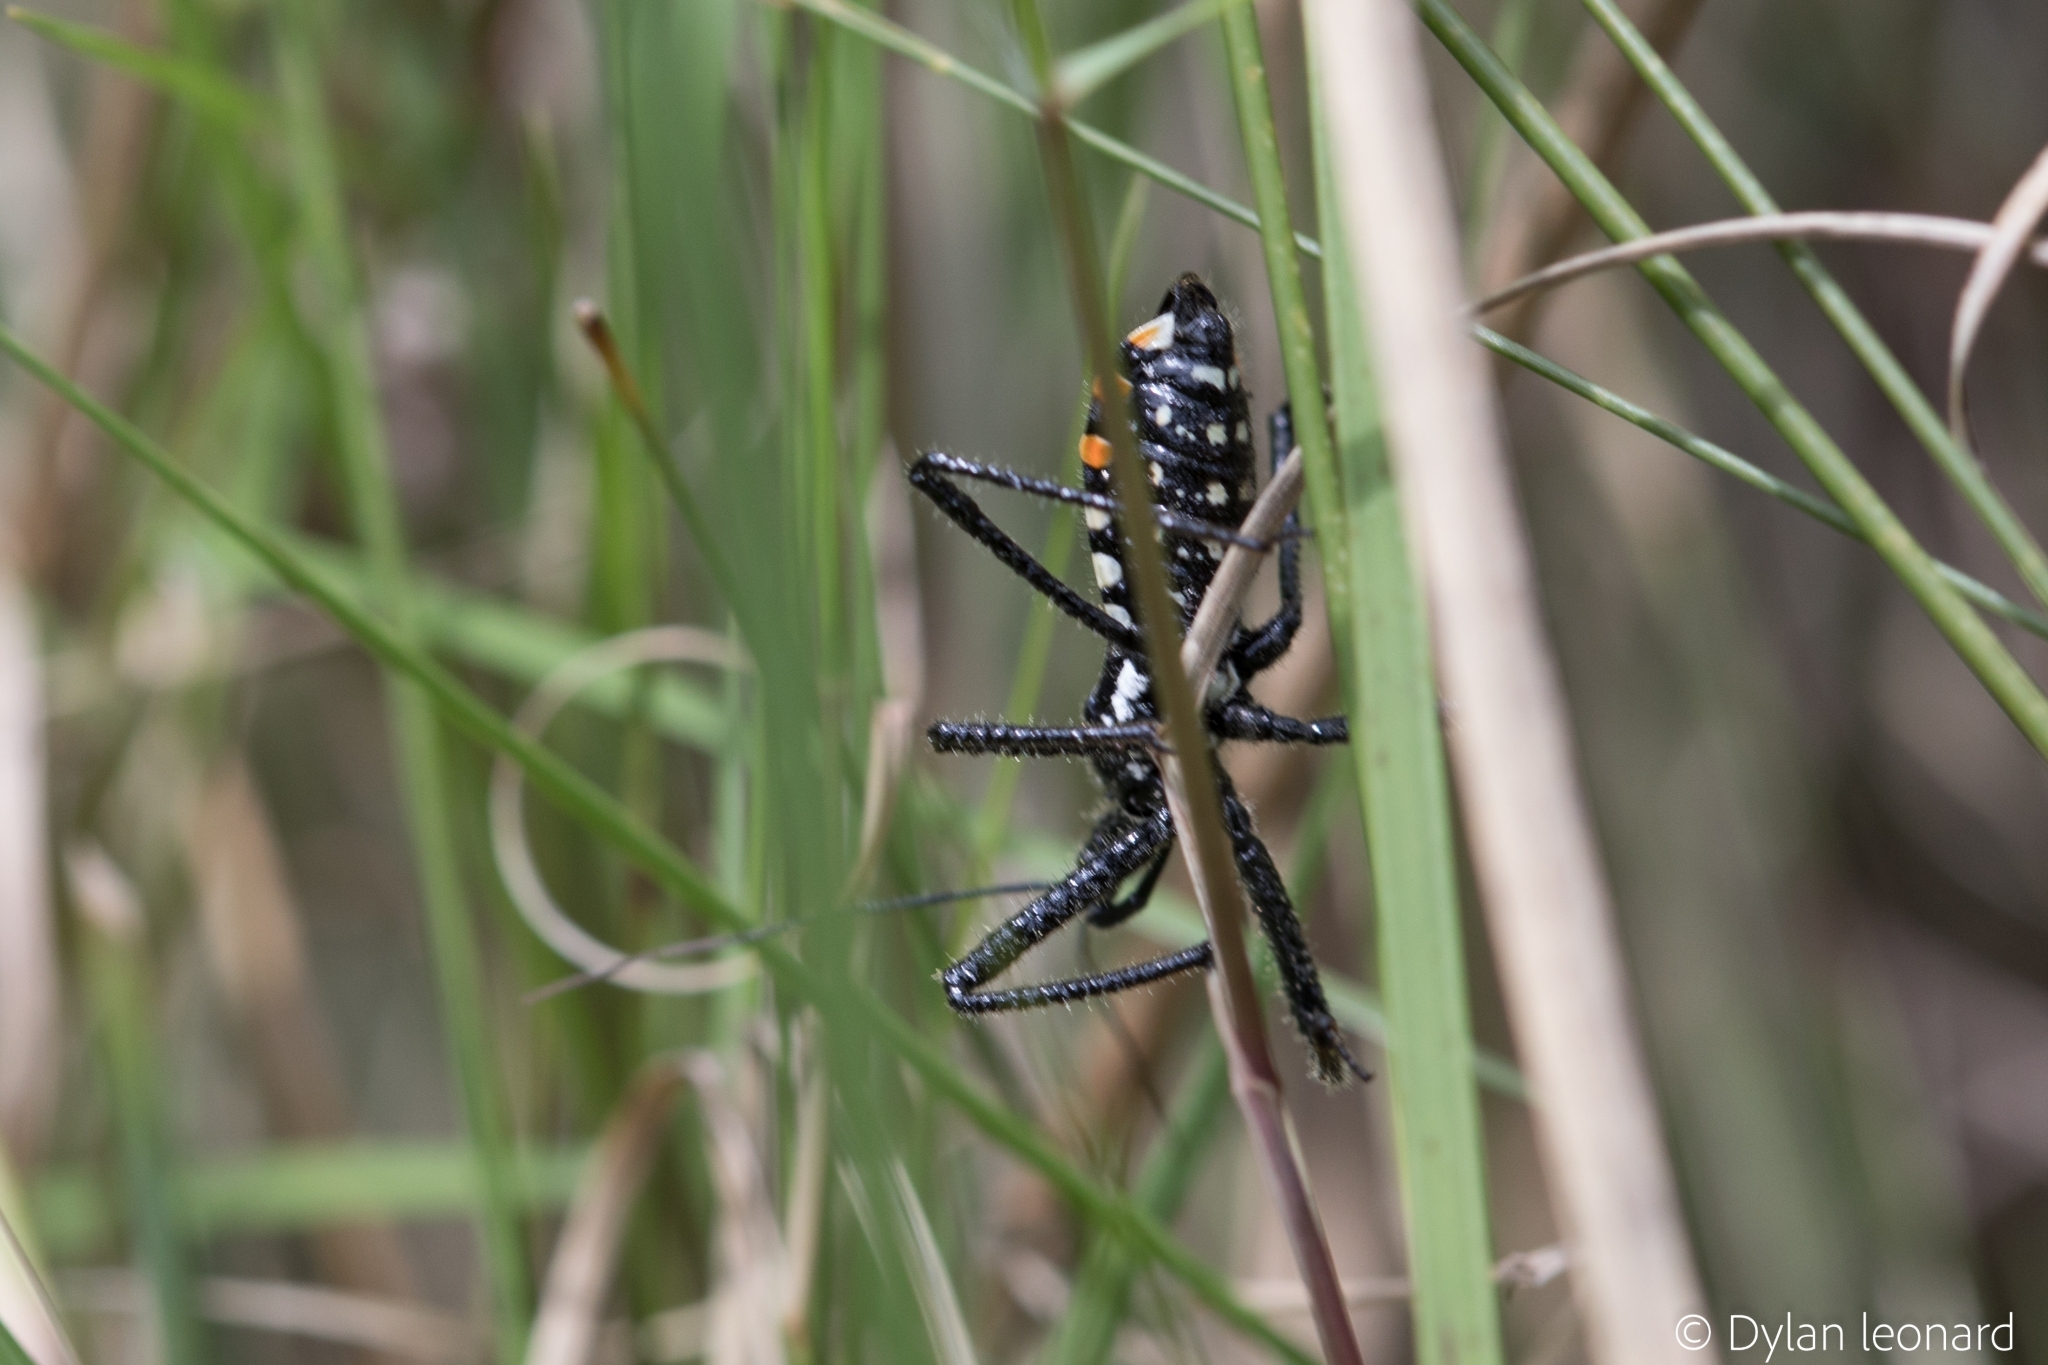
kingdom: Animalia
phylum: Arthropoda
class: Insecta
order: Hemiptera
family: Reduviidae
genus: Rhynocoris
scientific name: Rhynocoris albopunctatus
